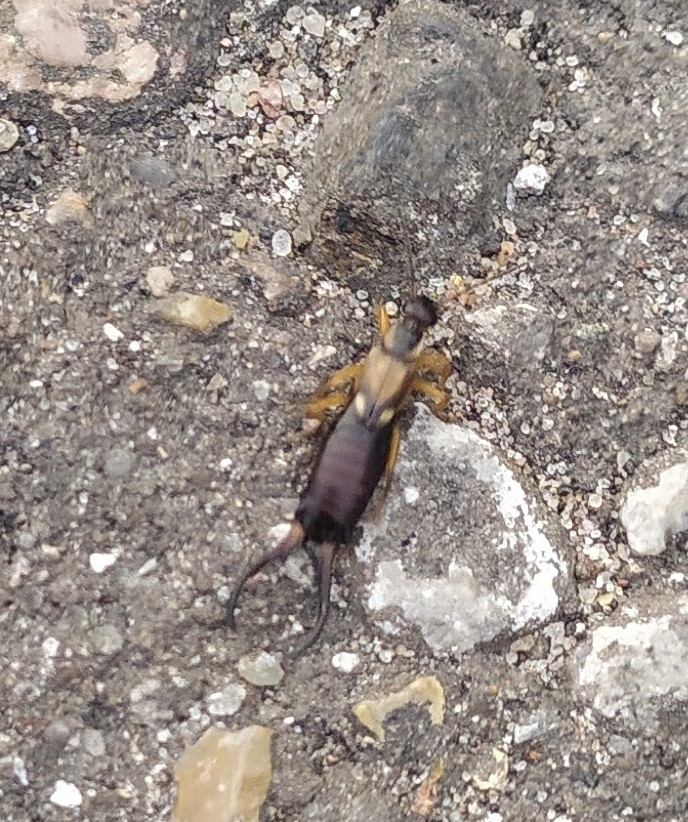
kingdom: Animalia
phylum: Arthropoda
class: Insecta
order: Dermaptera
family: Forficulidae
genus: Forficula
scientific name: Forficula
